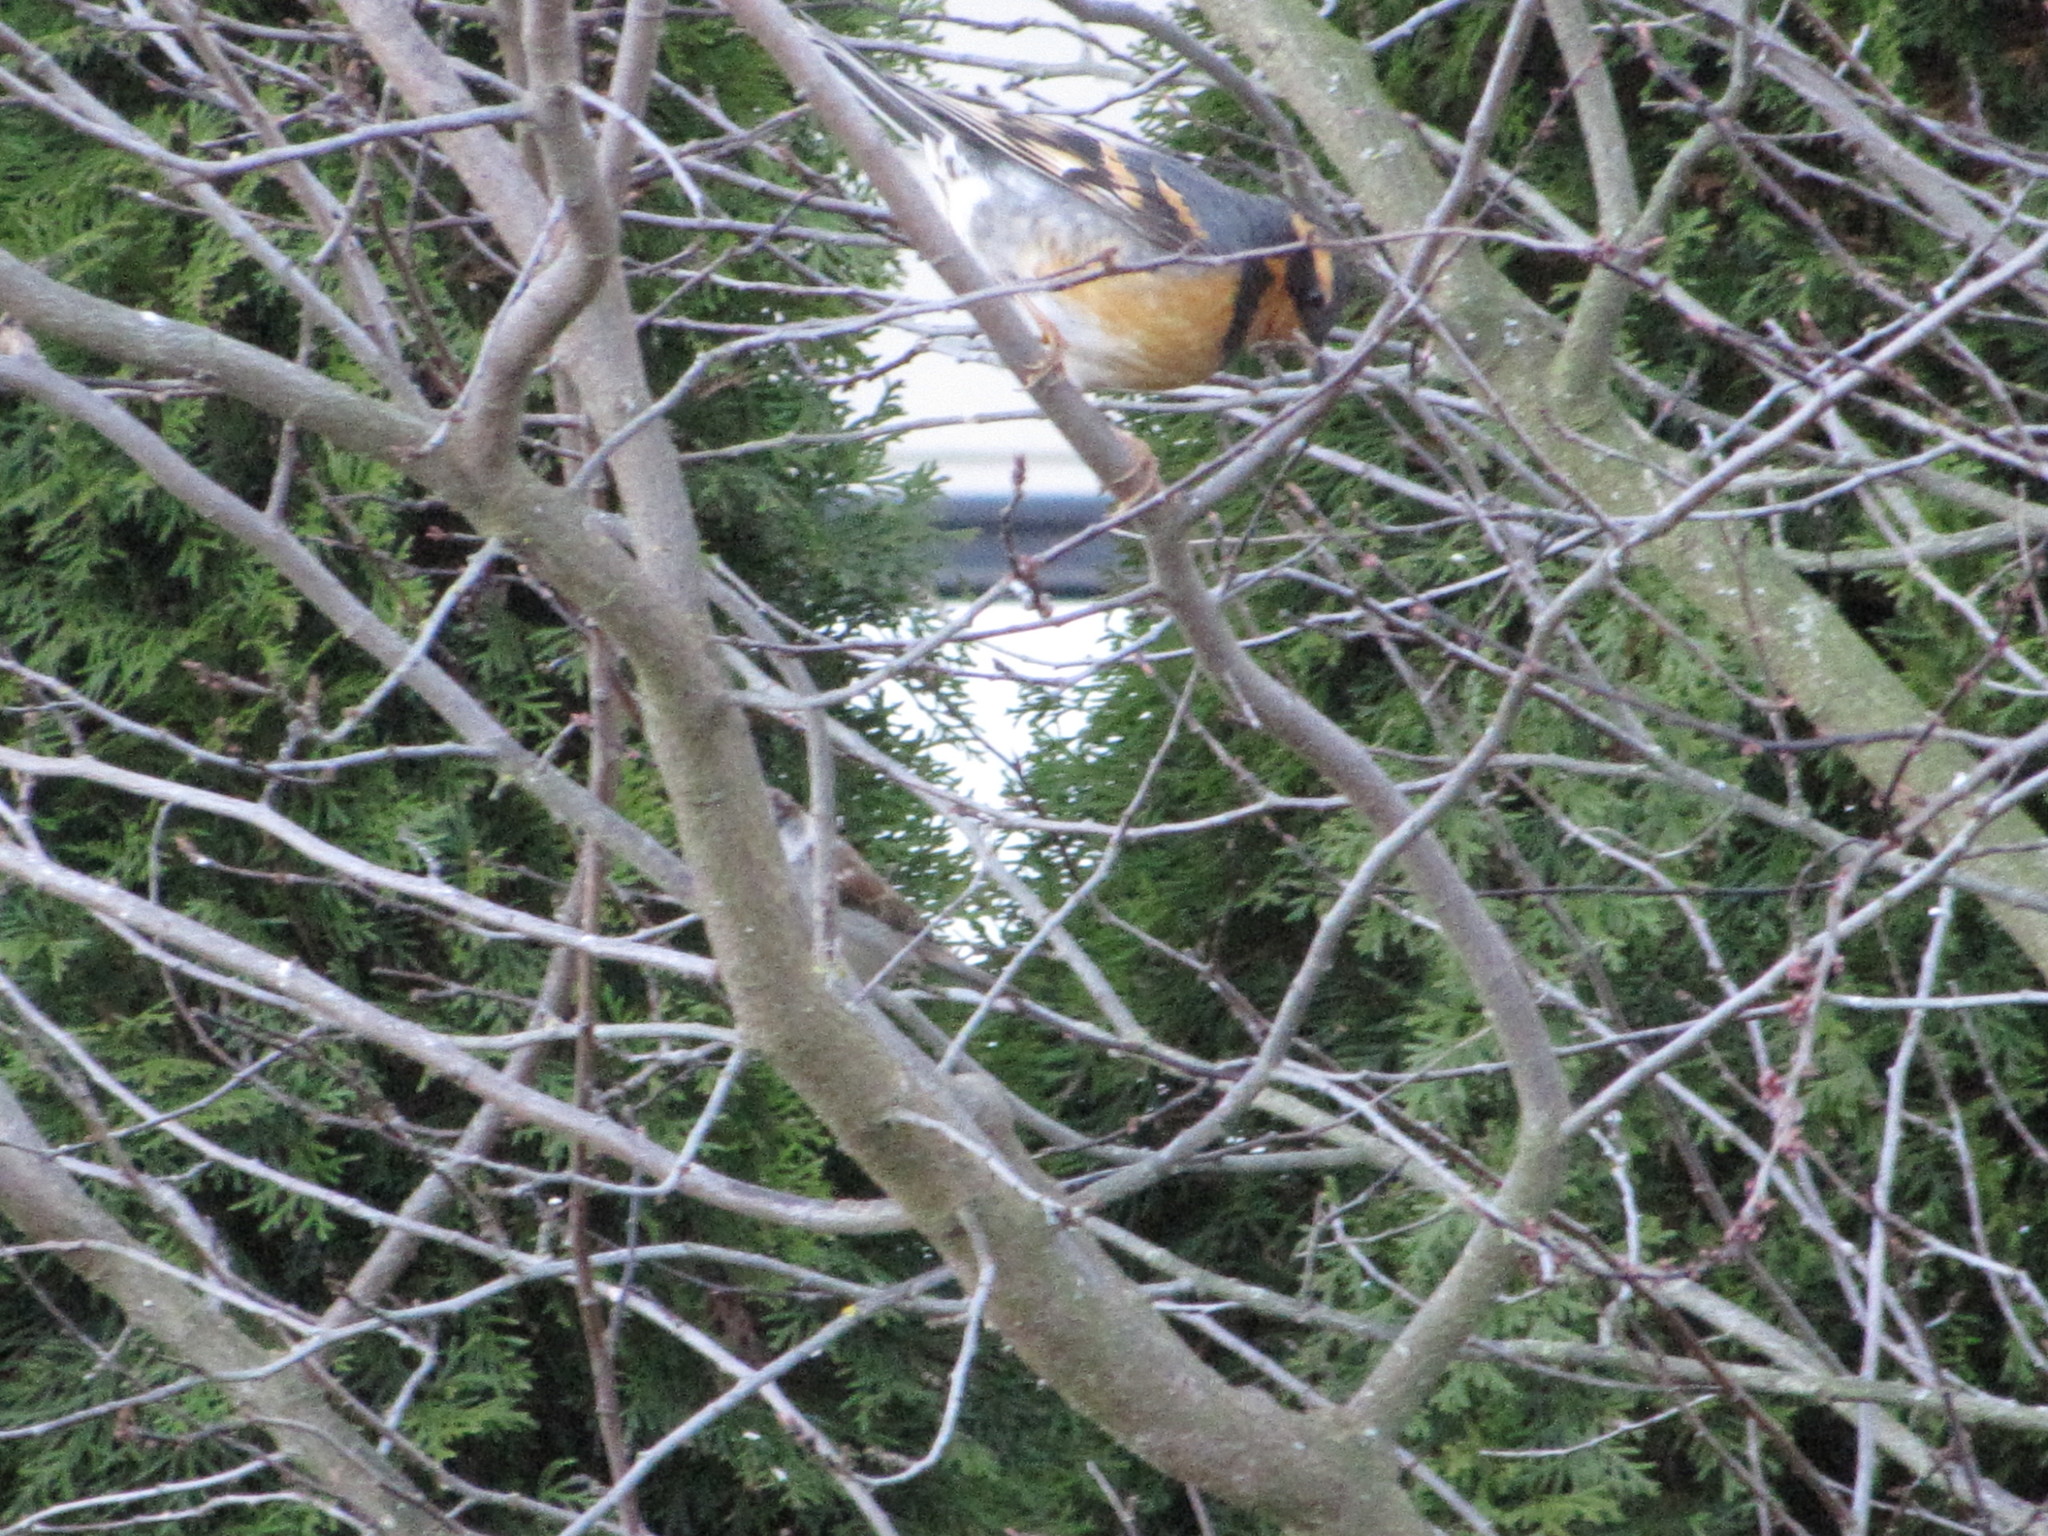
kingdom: Animalia
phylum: Chordata
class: Aves
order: Passeriformes
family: Turdidae
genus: Ixoreus
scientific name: Ixoreus naevius
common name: Varied thrush
